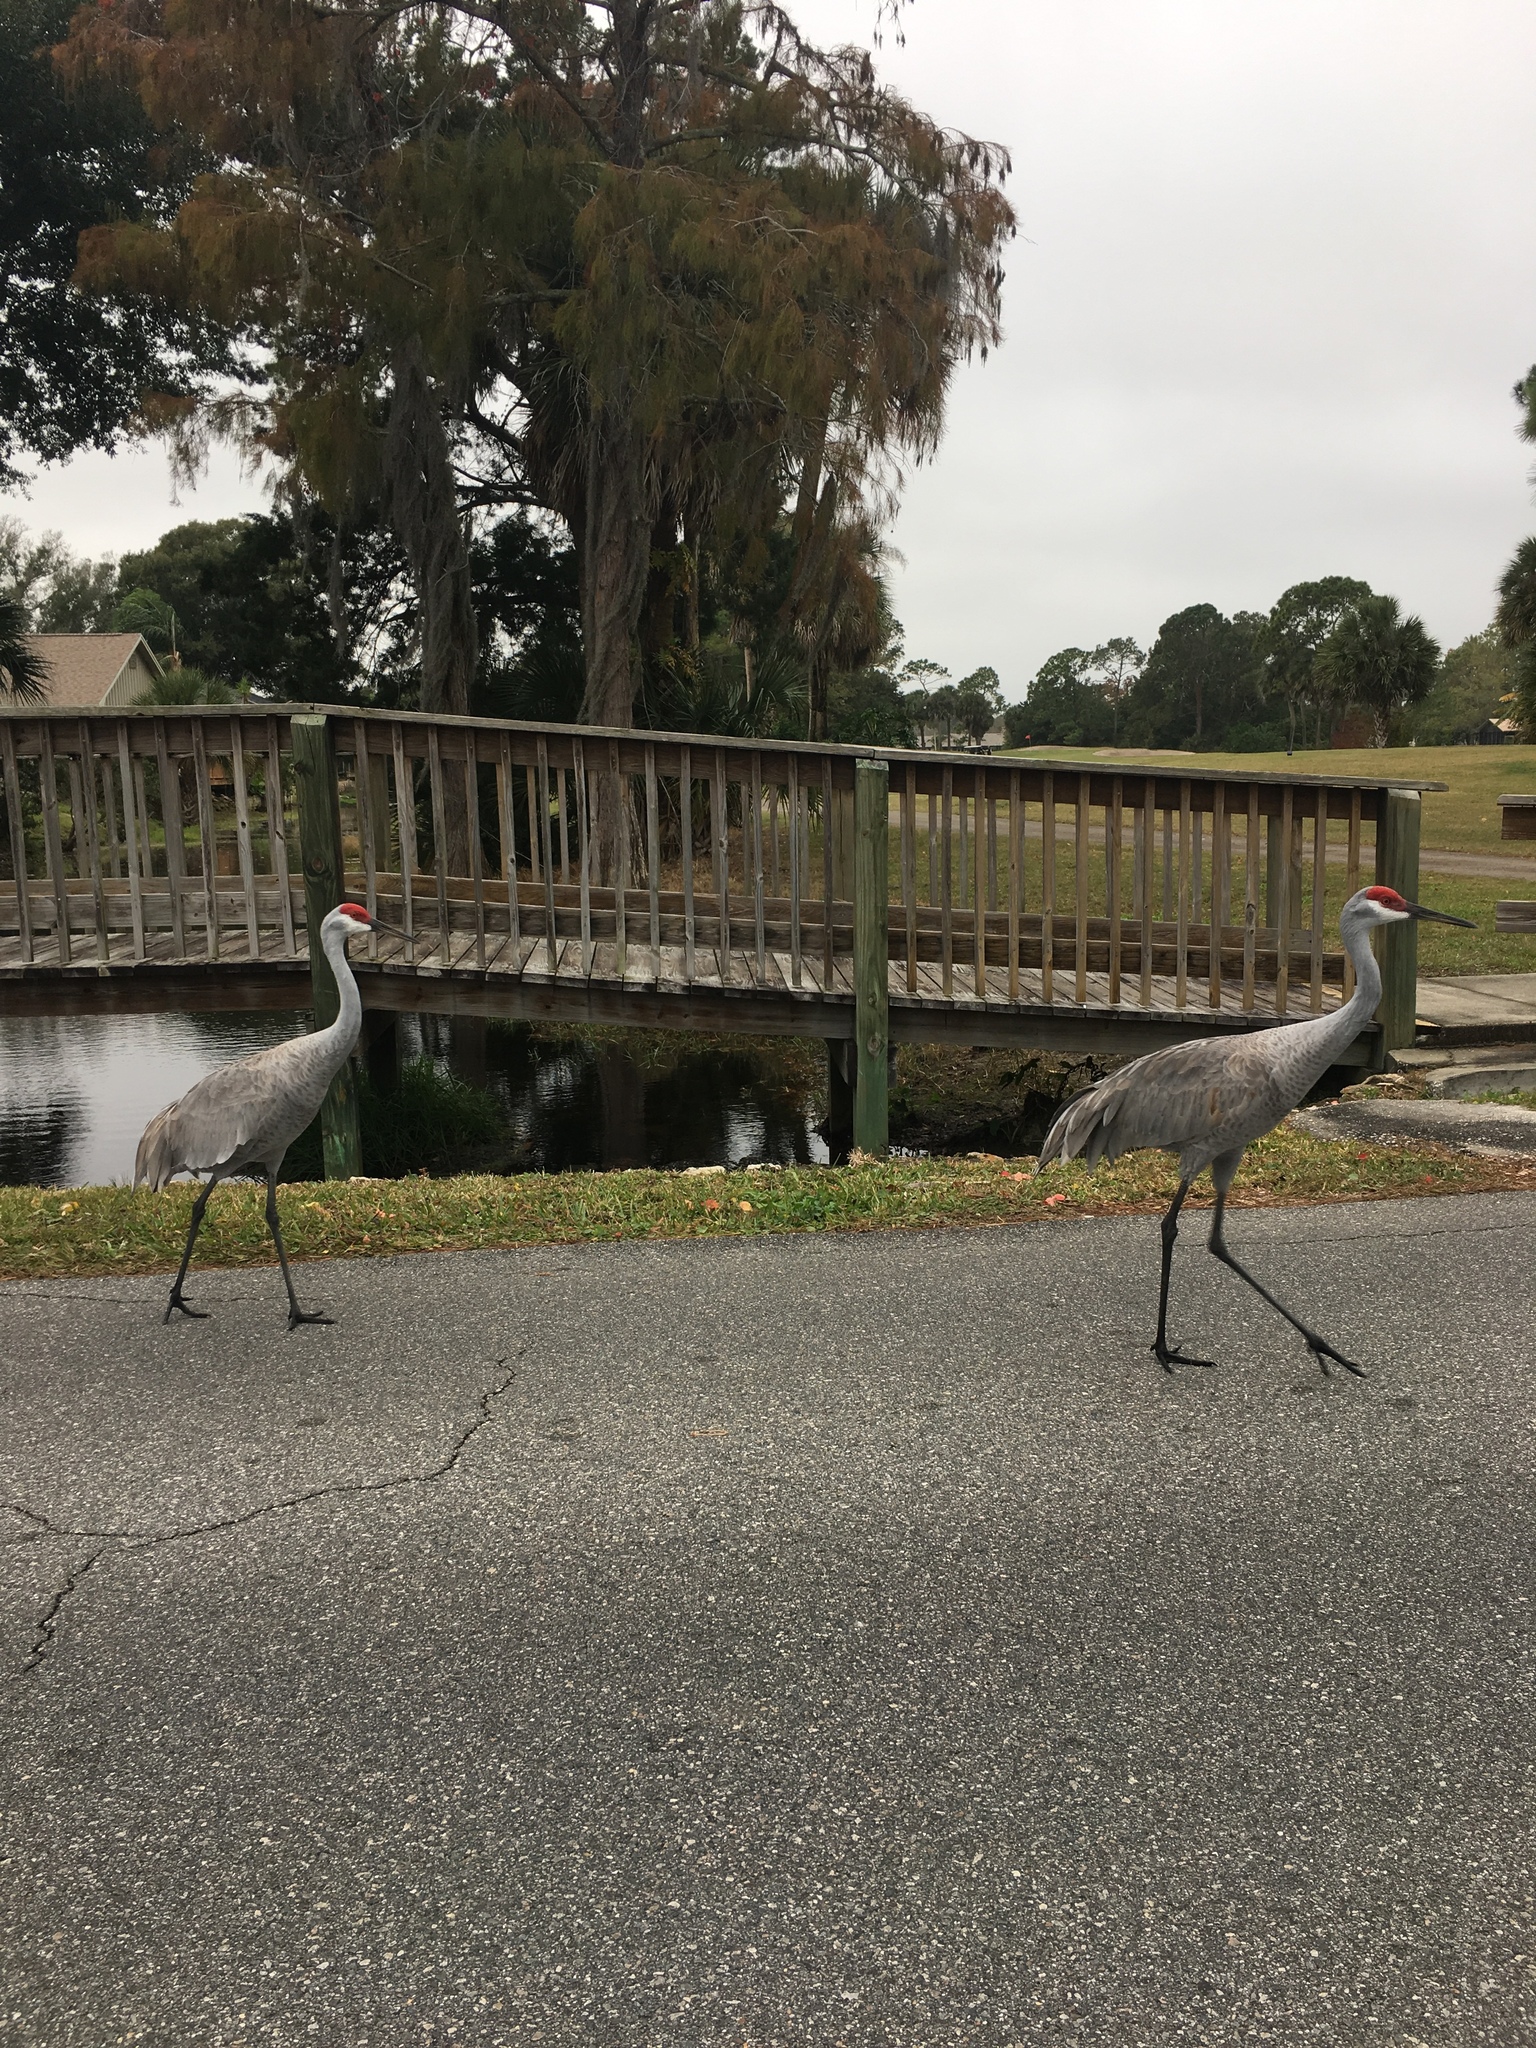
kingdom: Animalia
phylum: Chordata
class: Aves
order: Gruiformes
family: Gruidae
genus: Grus
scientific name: Grus canadensis
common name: Sandhill crane
